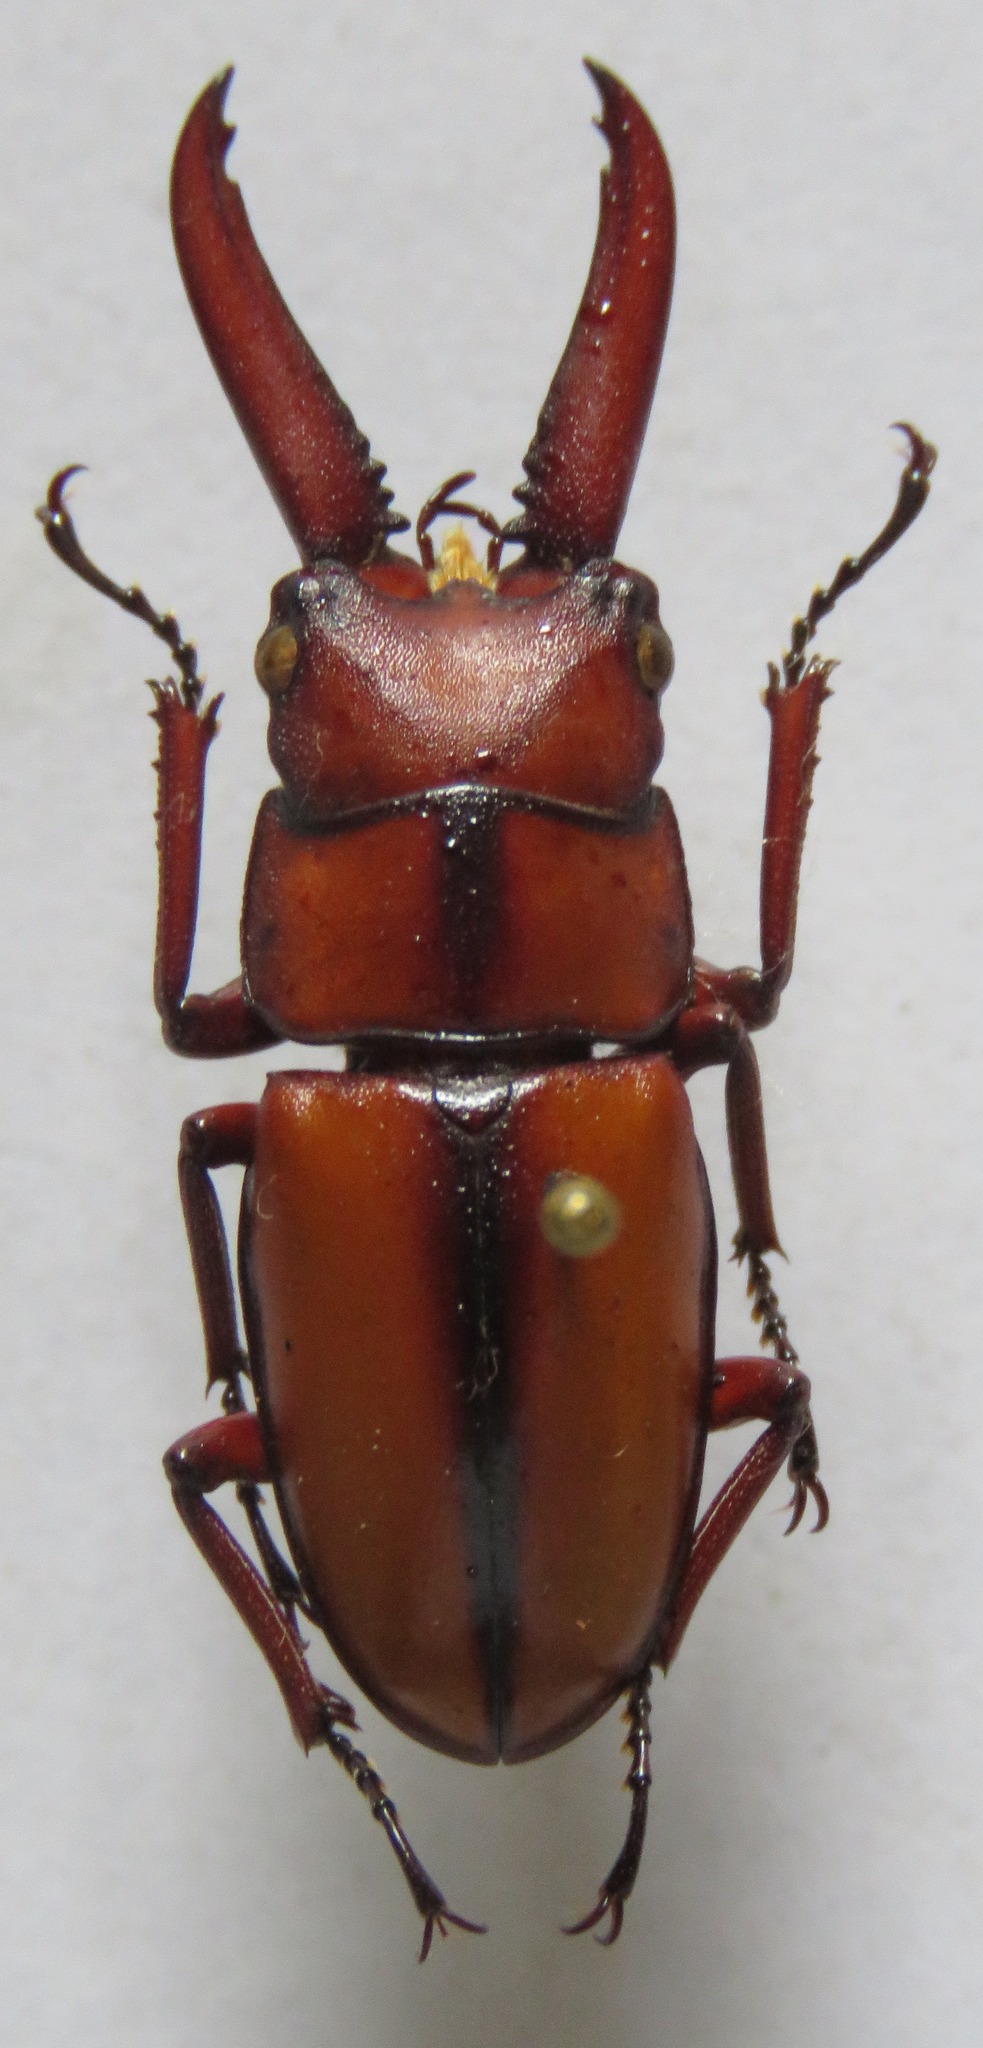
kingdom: Animalia
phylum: Arthropoda
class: Insecta
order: Coleoptera
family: Lucanidae
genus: Prosopocoilus
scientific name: Prosopocoilus mohnikei
